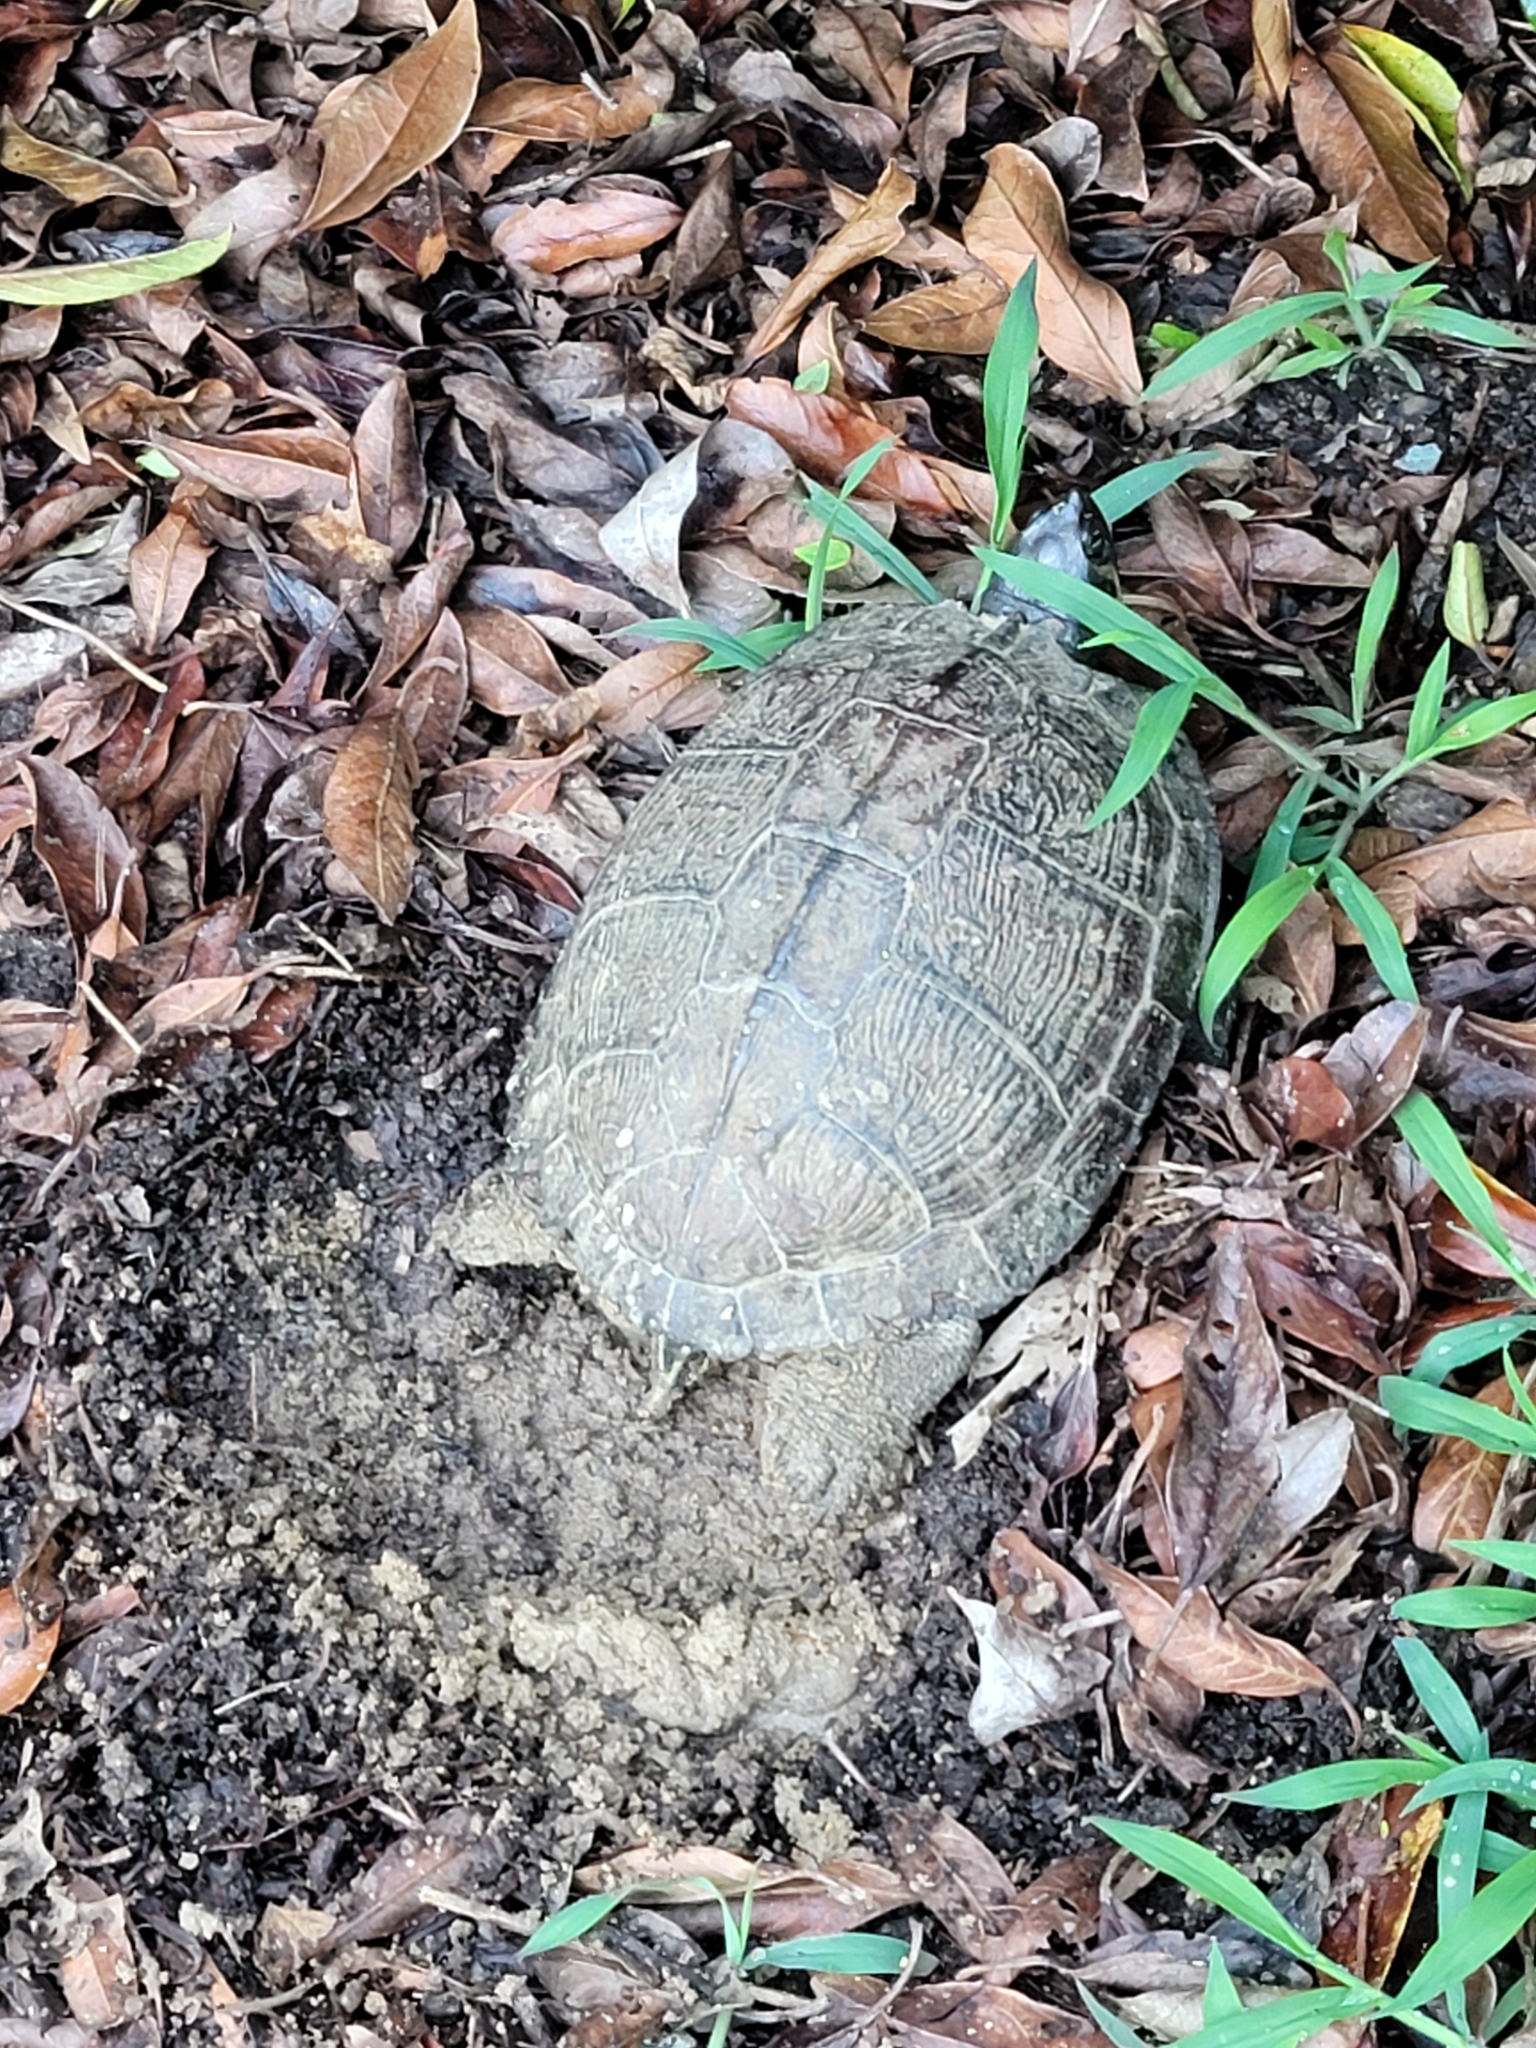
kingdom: Animalia
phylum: Chordata
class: Testudines
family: Emydidae
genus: Trachemys
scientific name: Trachemys scripta
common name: Slider
